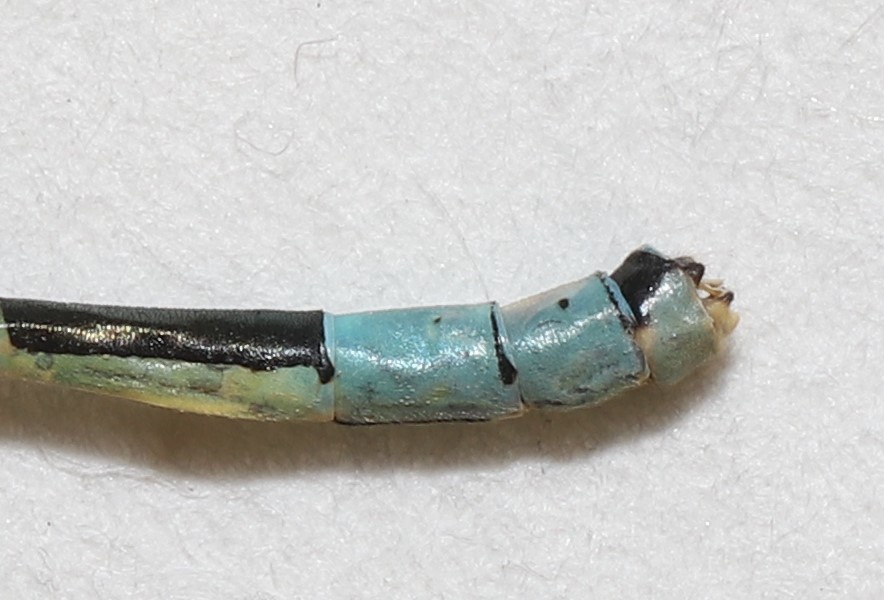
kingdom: Animalia
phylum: Arthropoda
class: Insecta
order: Odonata
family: Coenagrionidae
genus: Coenagrion
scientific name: Coenagrion resolutum
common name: Taiga bluet
